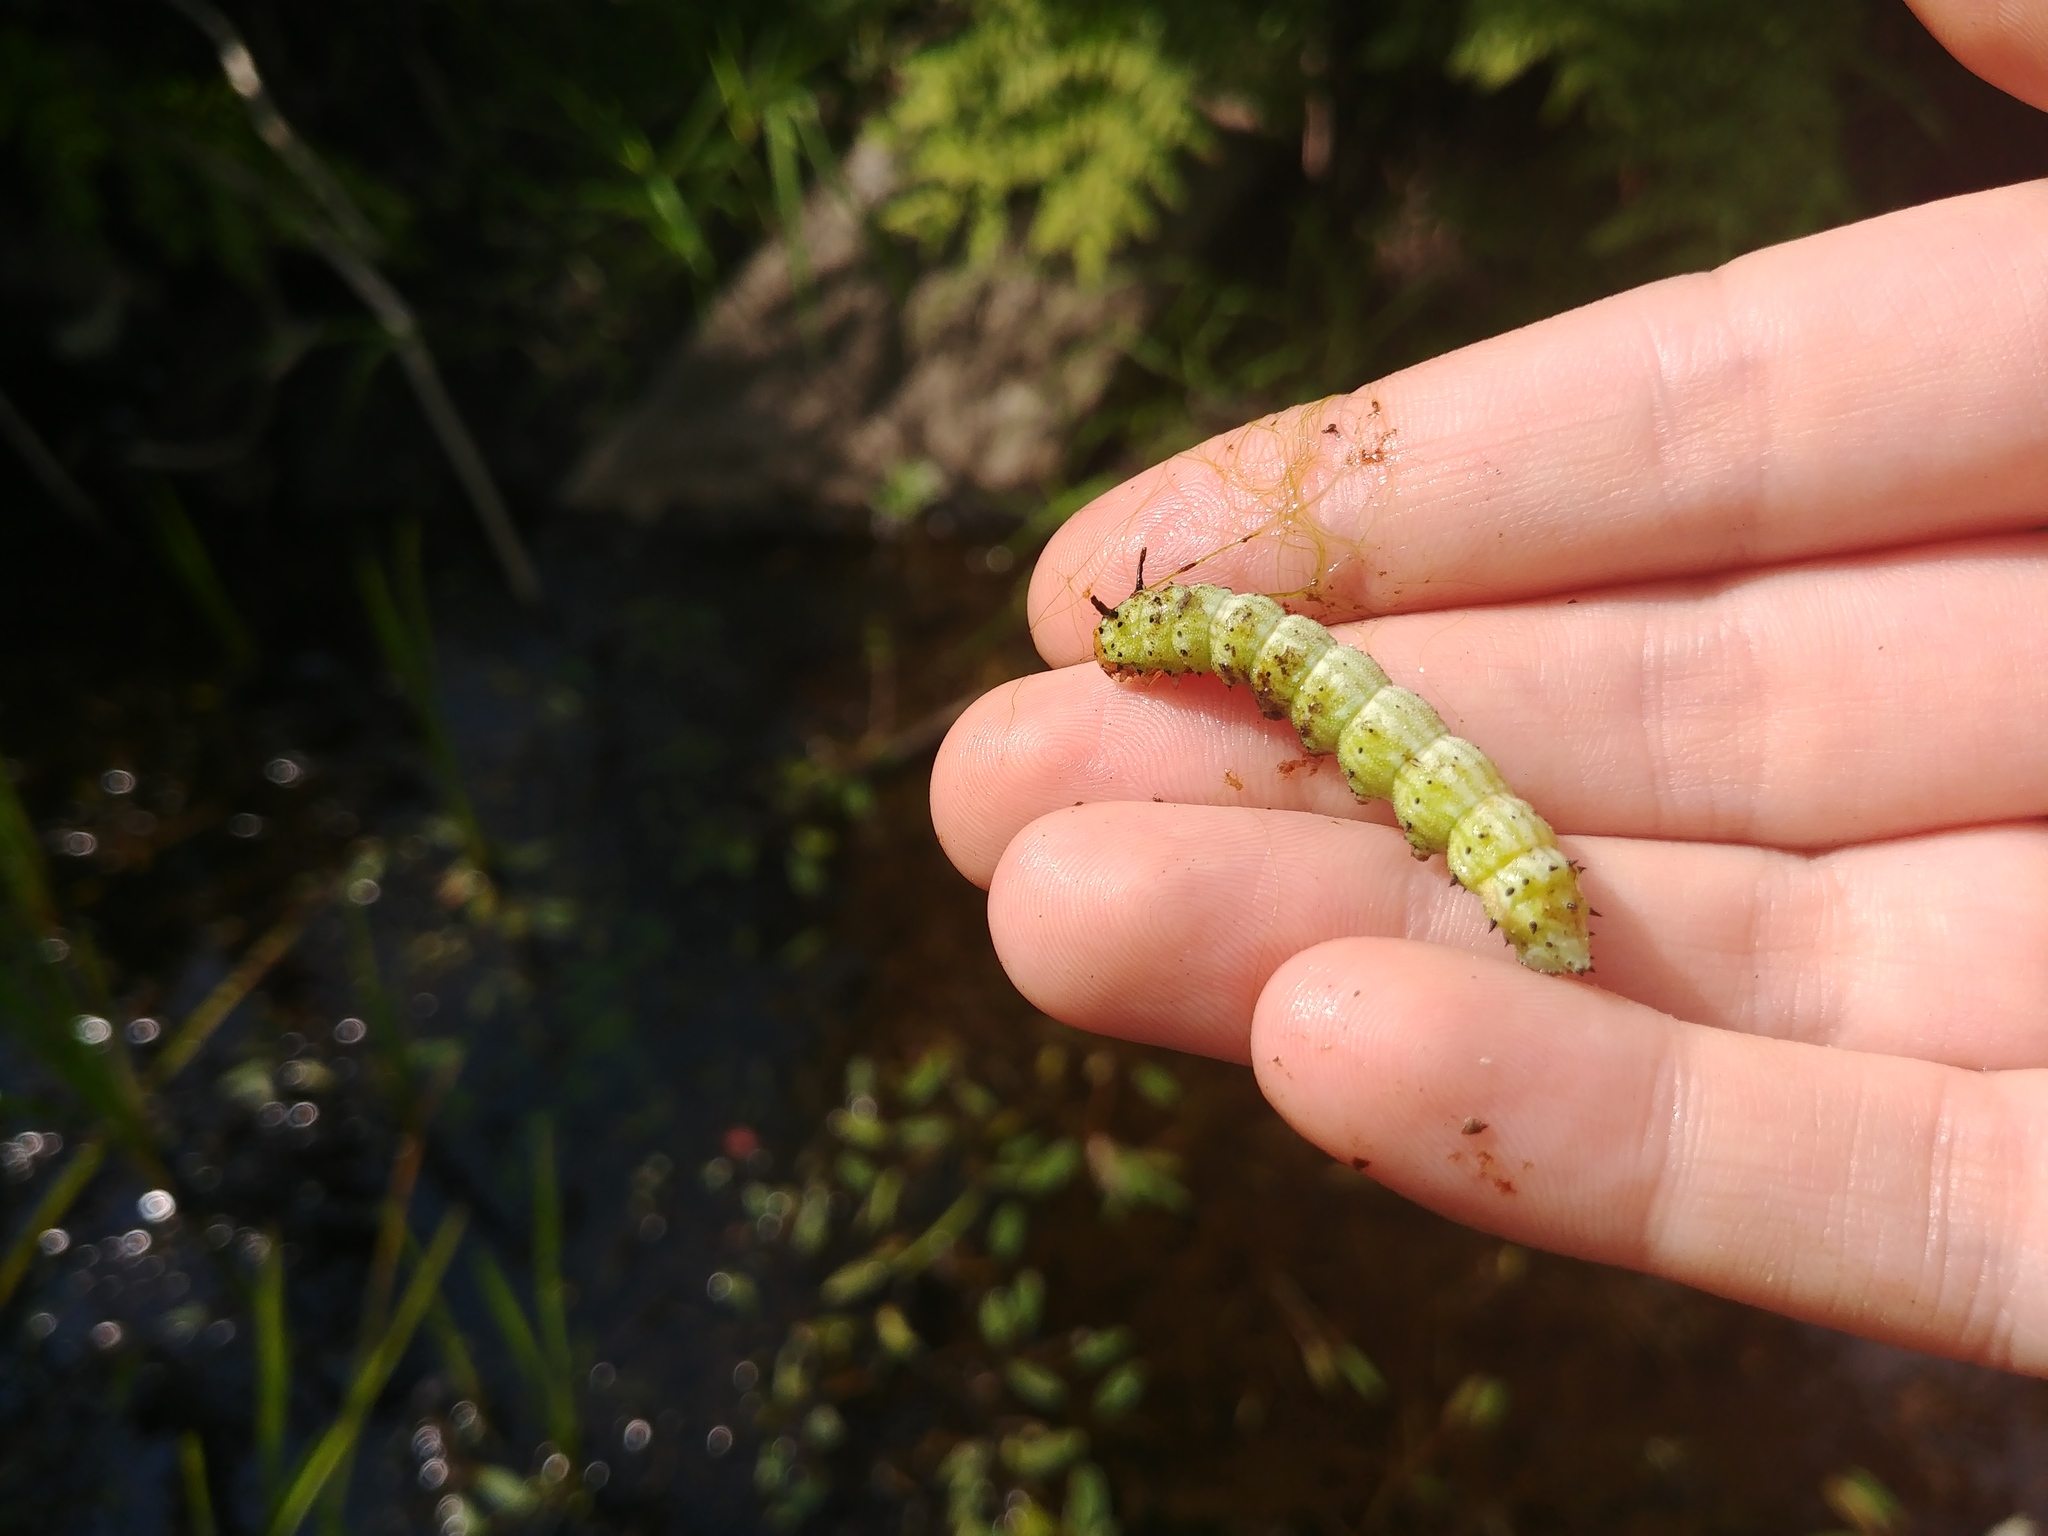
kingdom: Animalia
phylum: Arthropoda
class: Insecta
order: Lepidoptera
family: Saturniidae
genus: Dryocampa
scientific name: Dryocampa rubicunda
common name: Rosy maple moth
